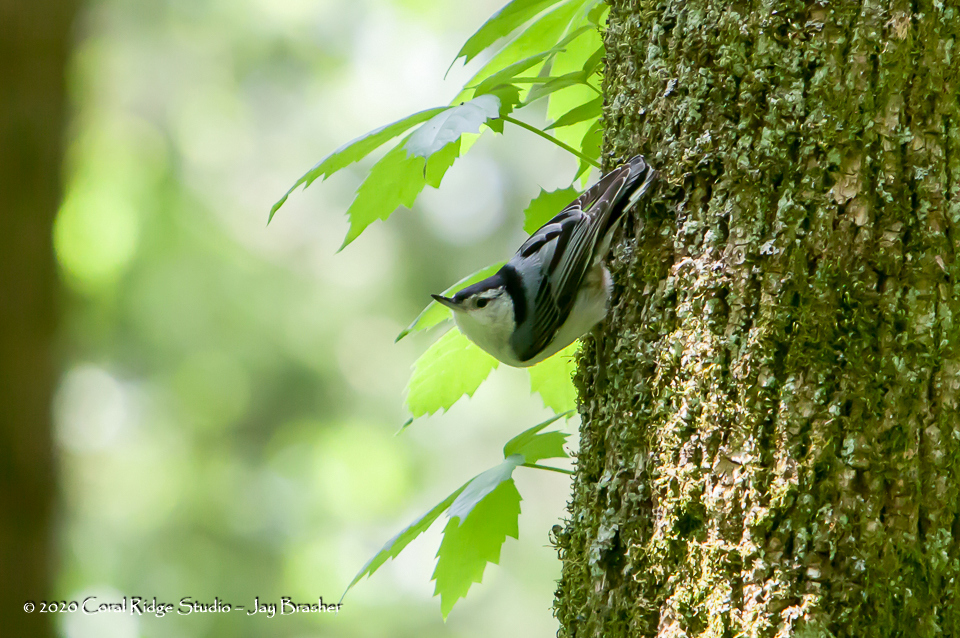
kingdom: Animalia
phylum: Chordata
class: Aves
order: Passeriformes
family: Sittidae
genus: Sitta
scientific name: Sitta carolinensis
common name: White-breasted nuthatch
